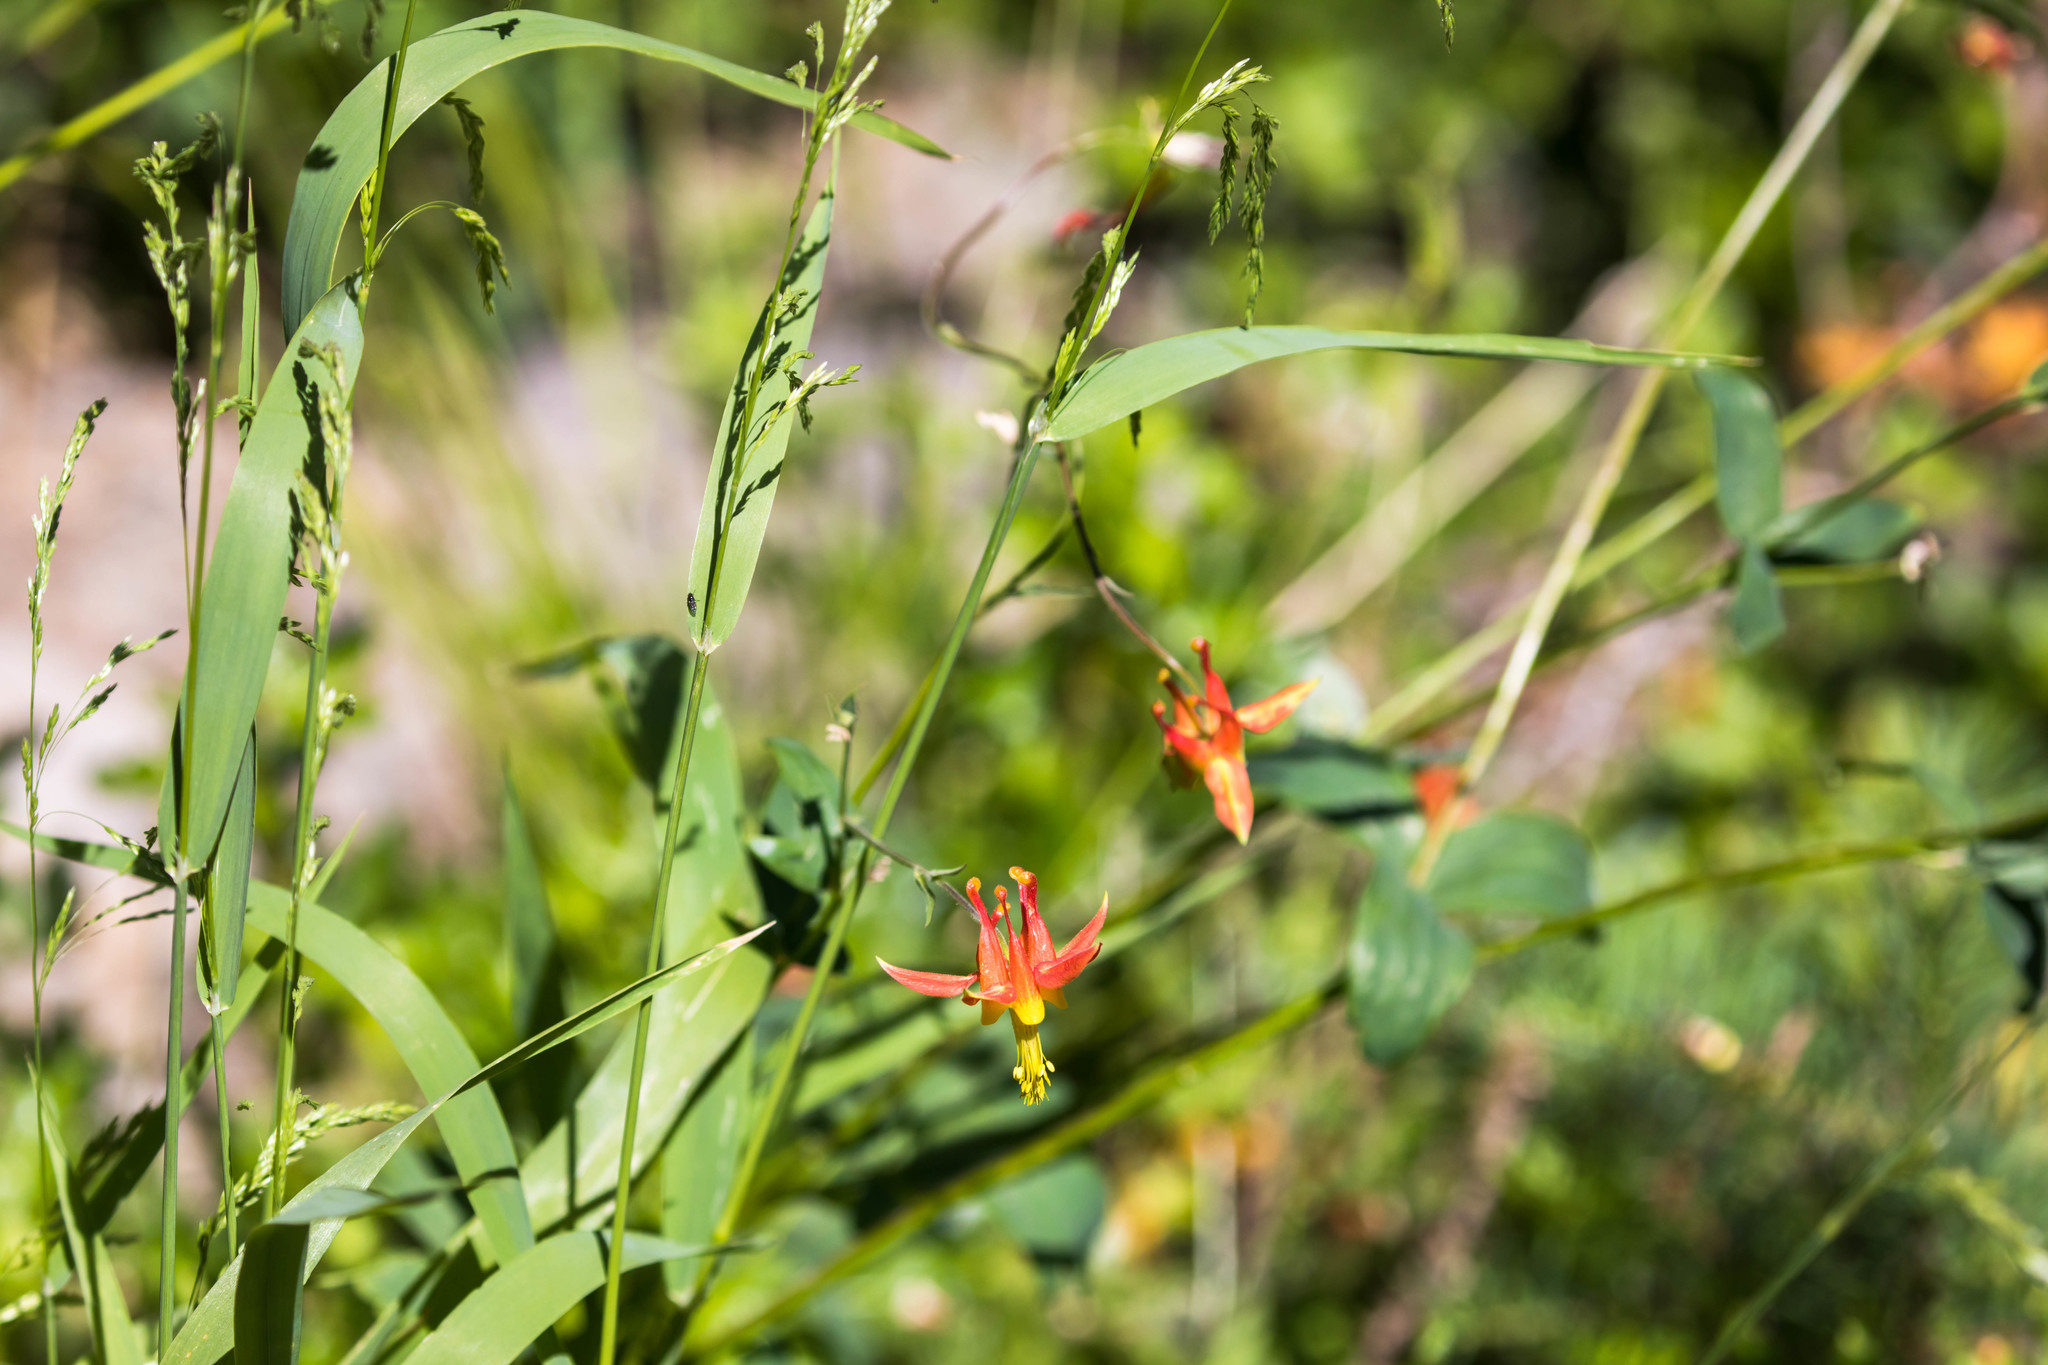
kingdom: Plantae
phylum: Tracheophyta
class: Magnoliopsida
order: Ranunculales
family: Ranunculaceae
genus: Aquilegia
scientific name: Aquilegia formosa
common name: Sitka columbine
